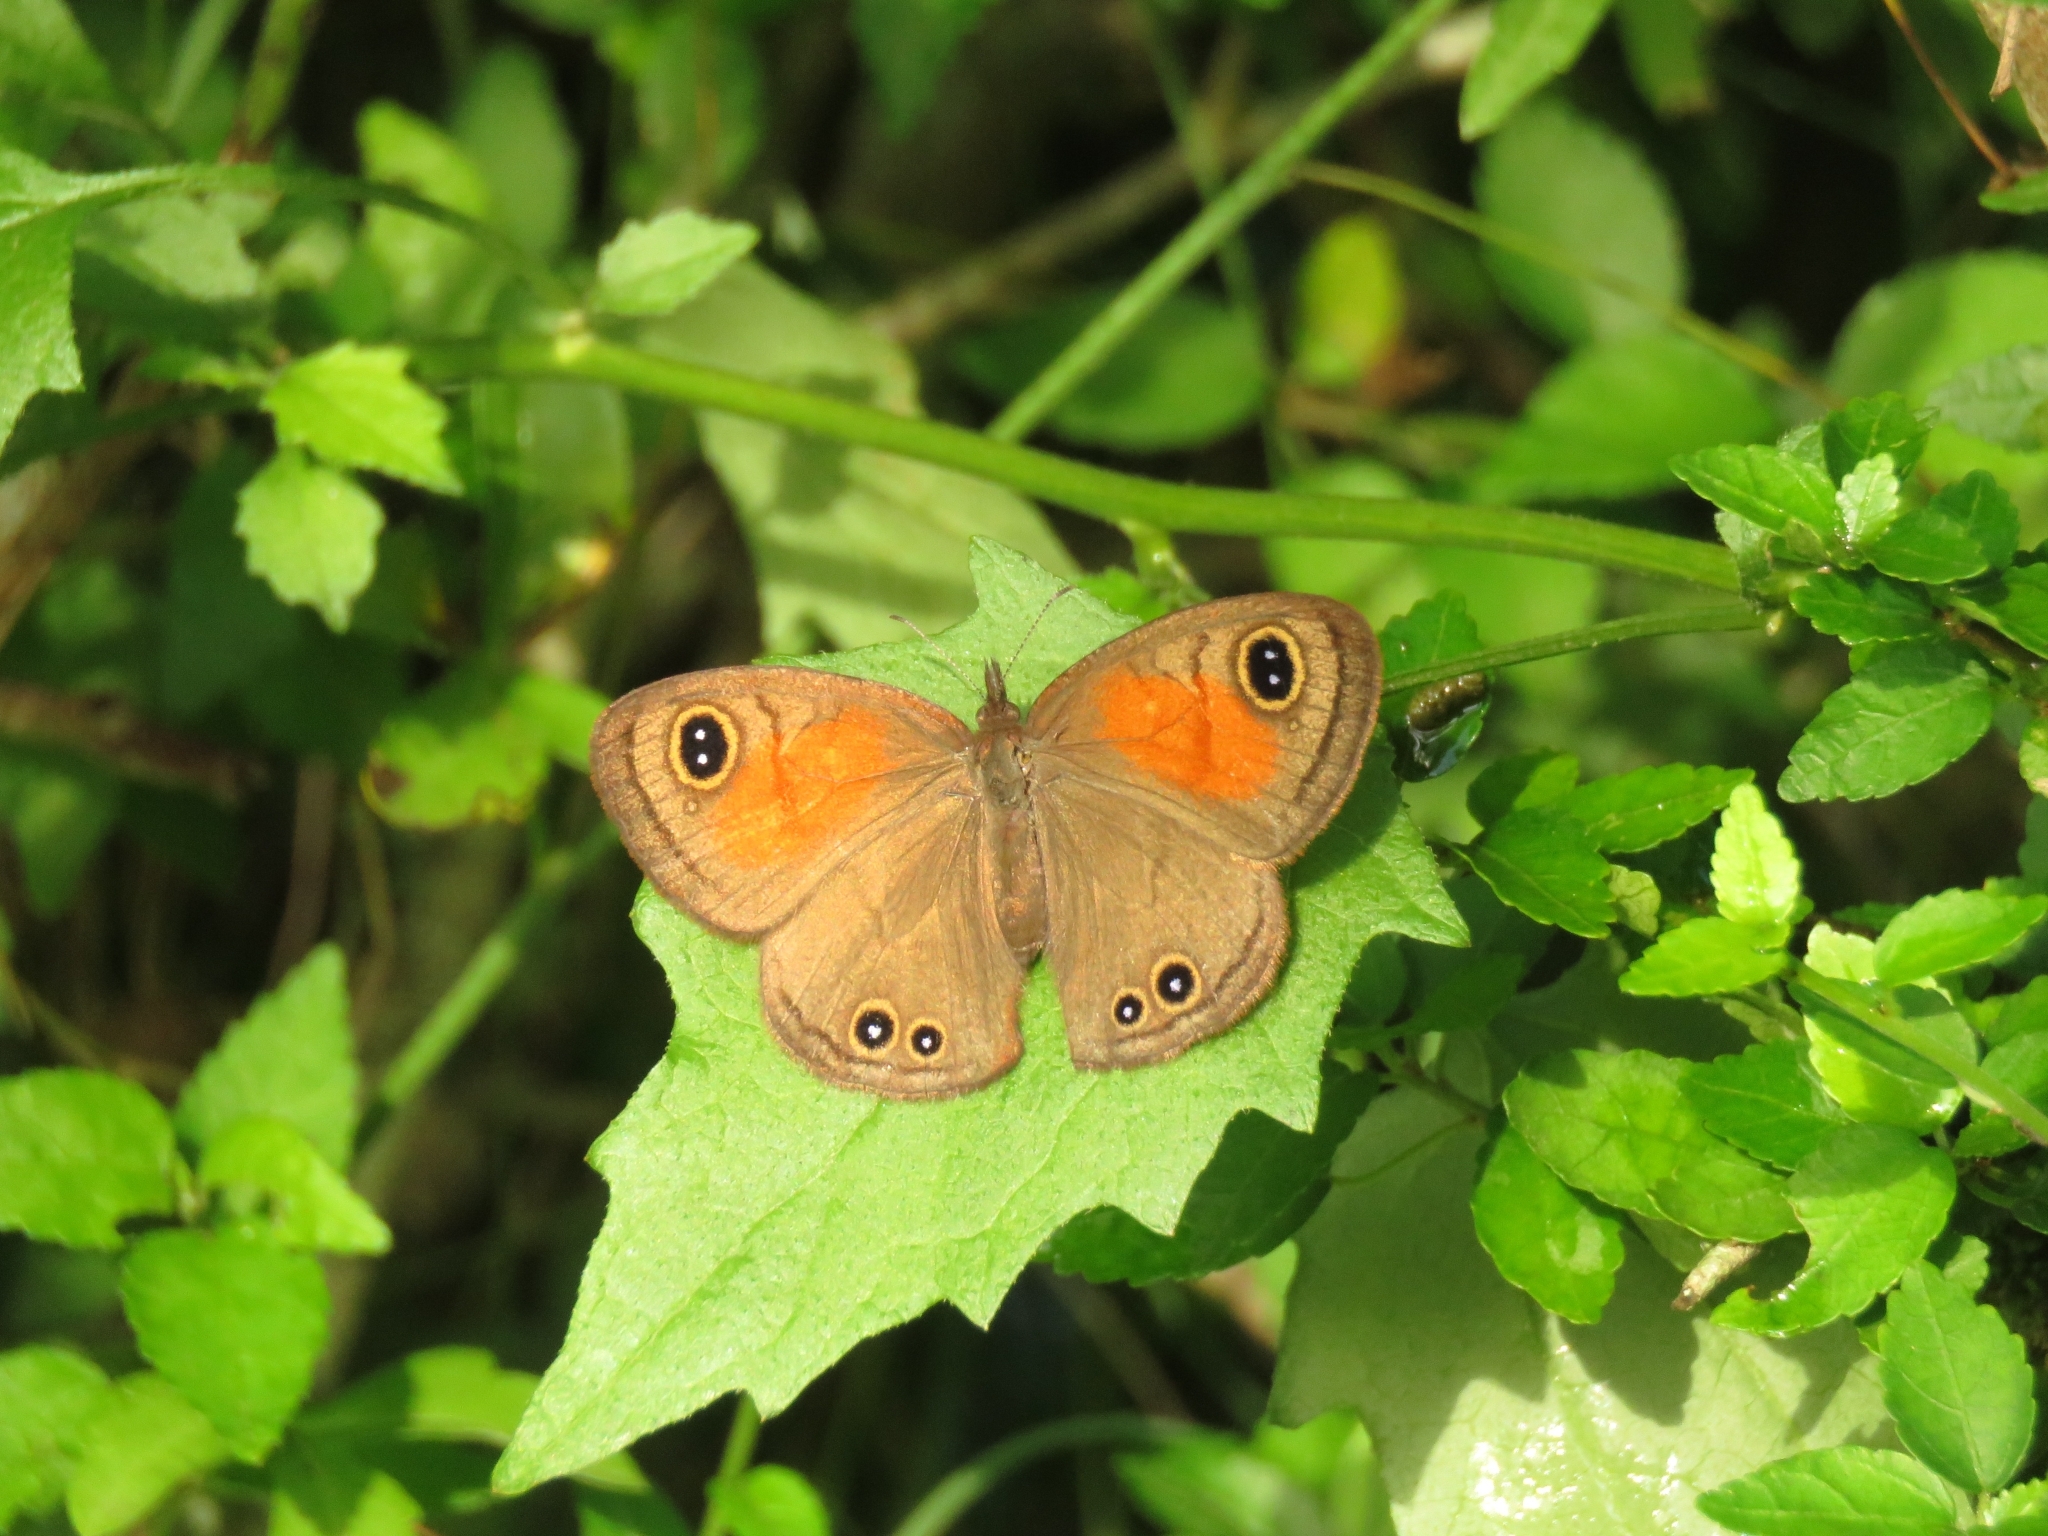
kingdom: Animalia
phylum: Arthropoda
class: Insecta
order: Lepidoptera
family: Nymphalidae
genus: Cassionympha
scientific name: Cassionympha cassius
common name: Rainforest brown
